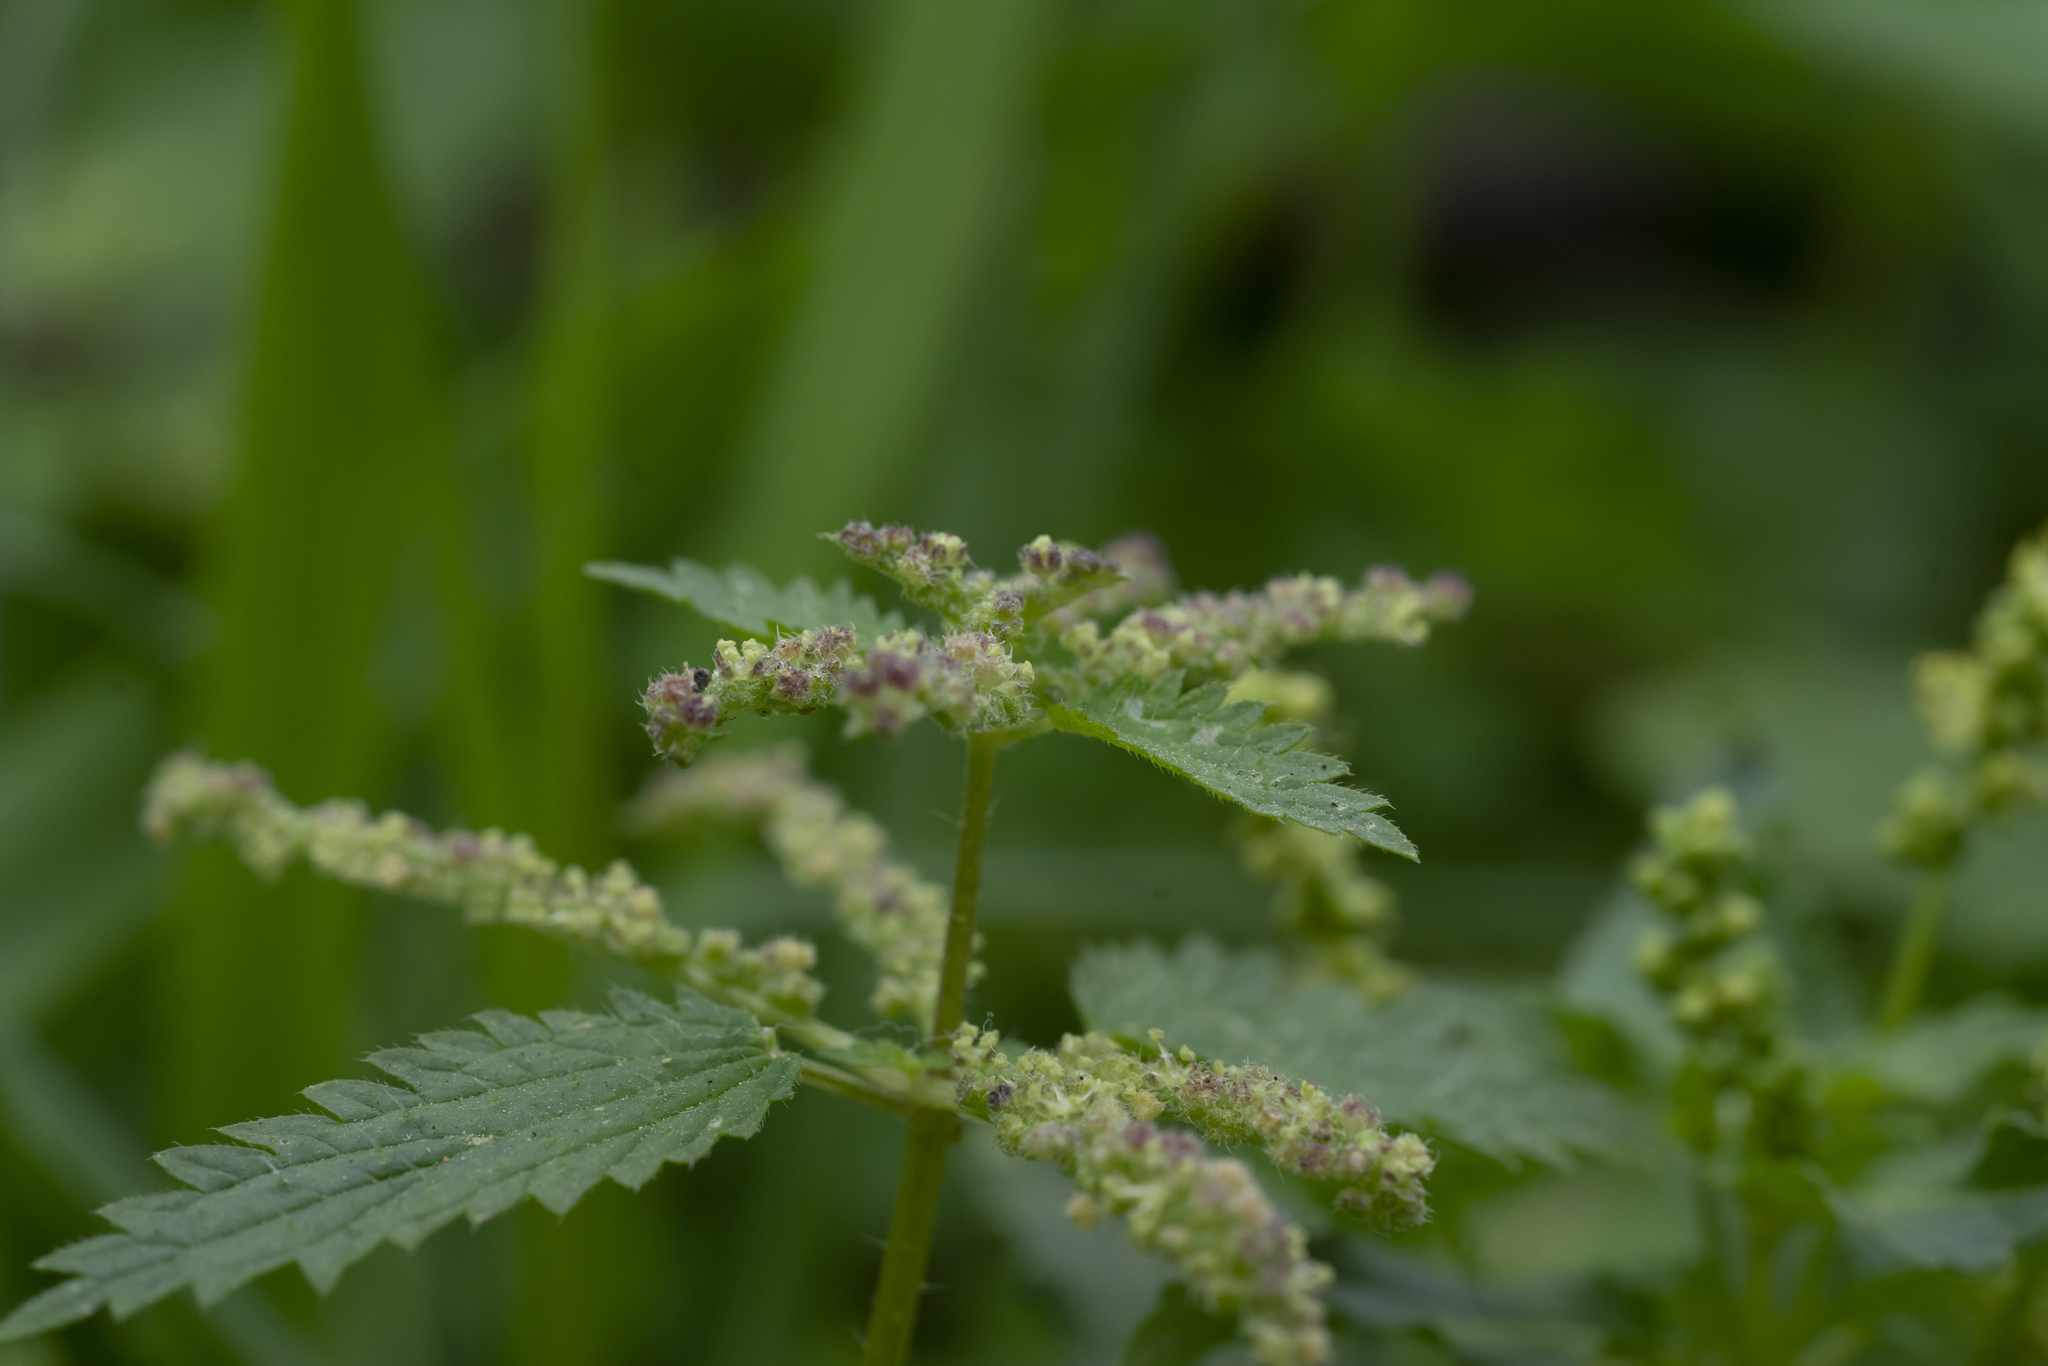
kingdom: Plantae
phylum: Tracheophyta
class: Magnoliopsida
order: Rosales
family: Urticaceae
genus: Urtica
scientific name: Urtica membranacea
